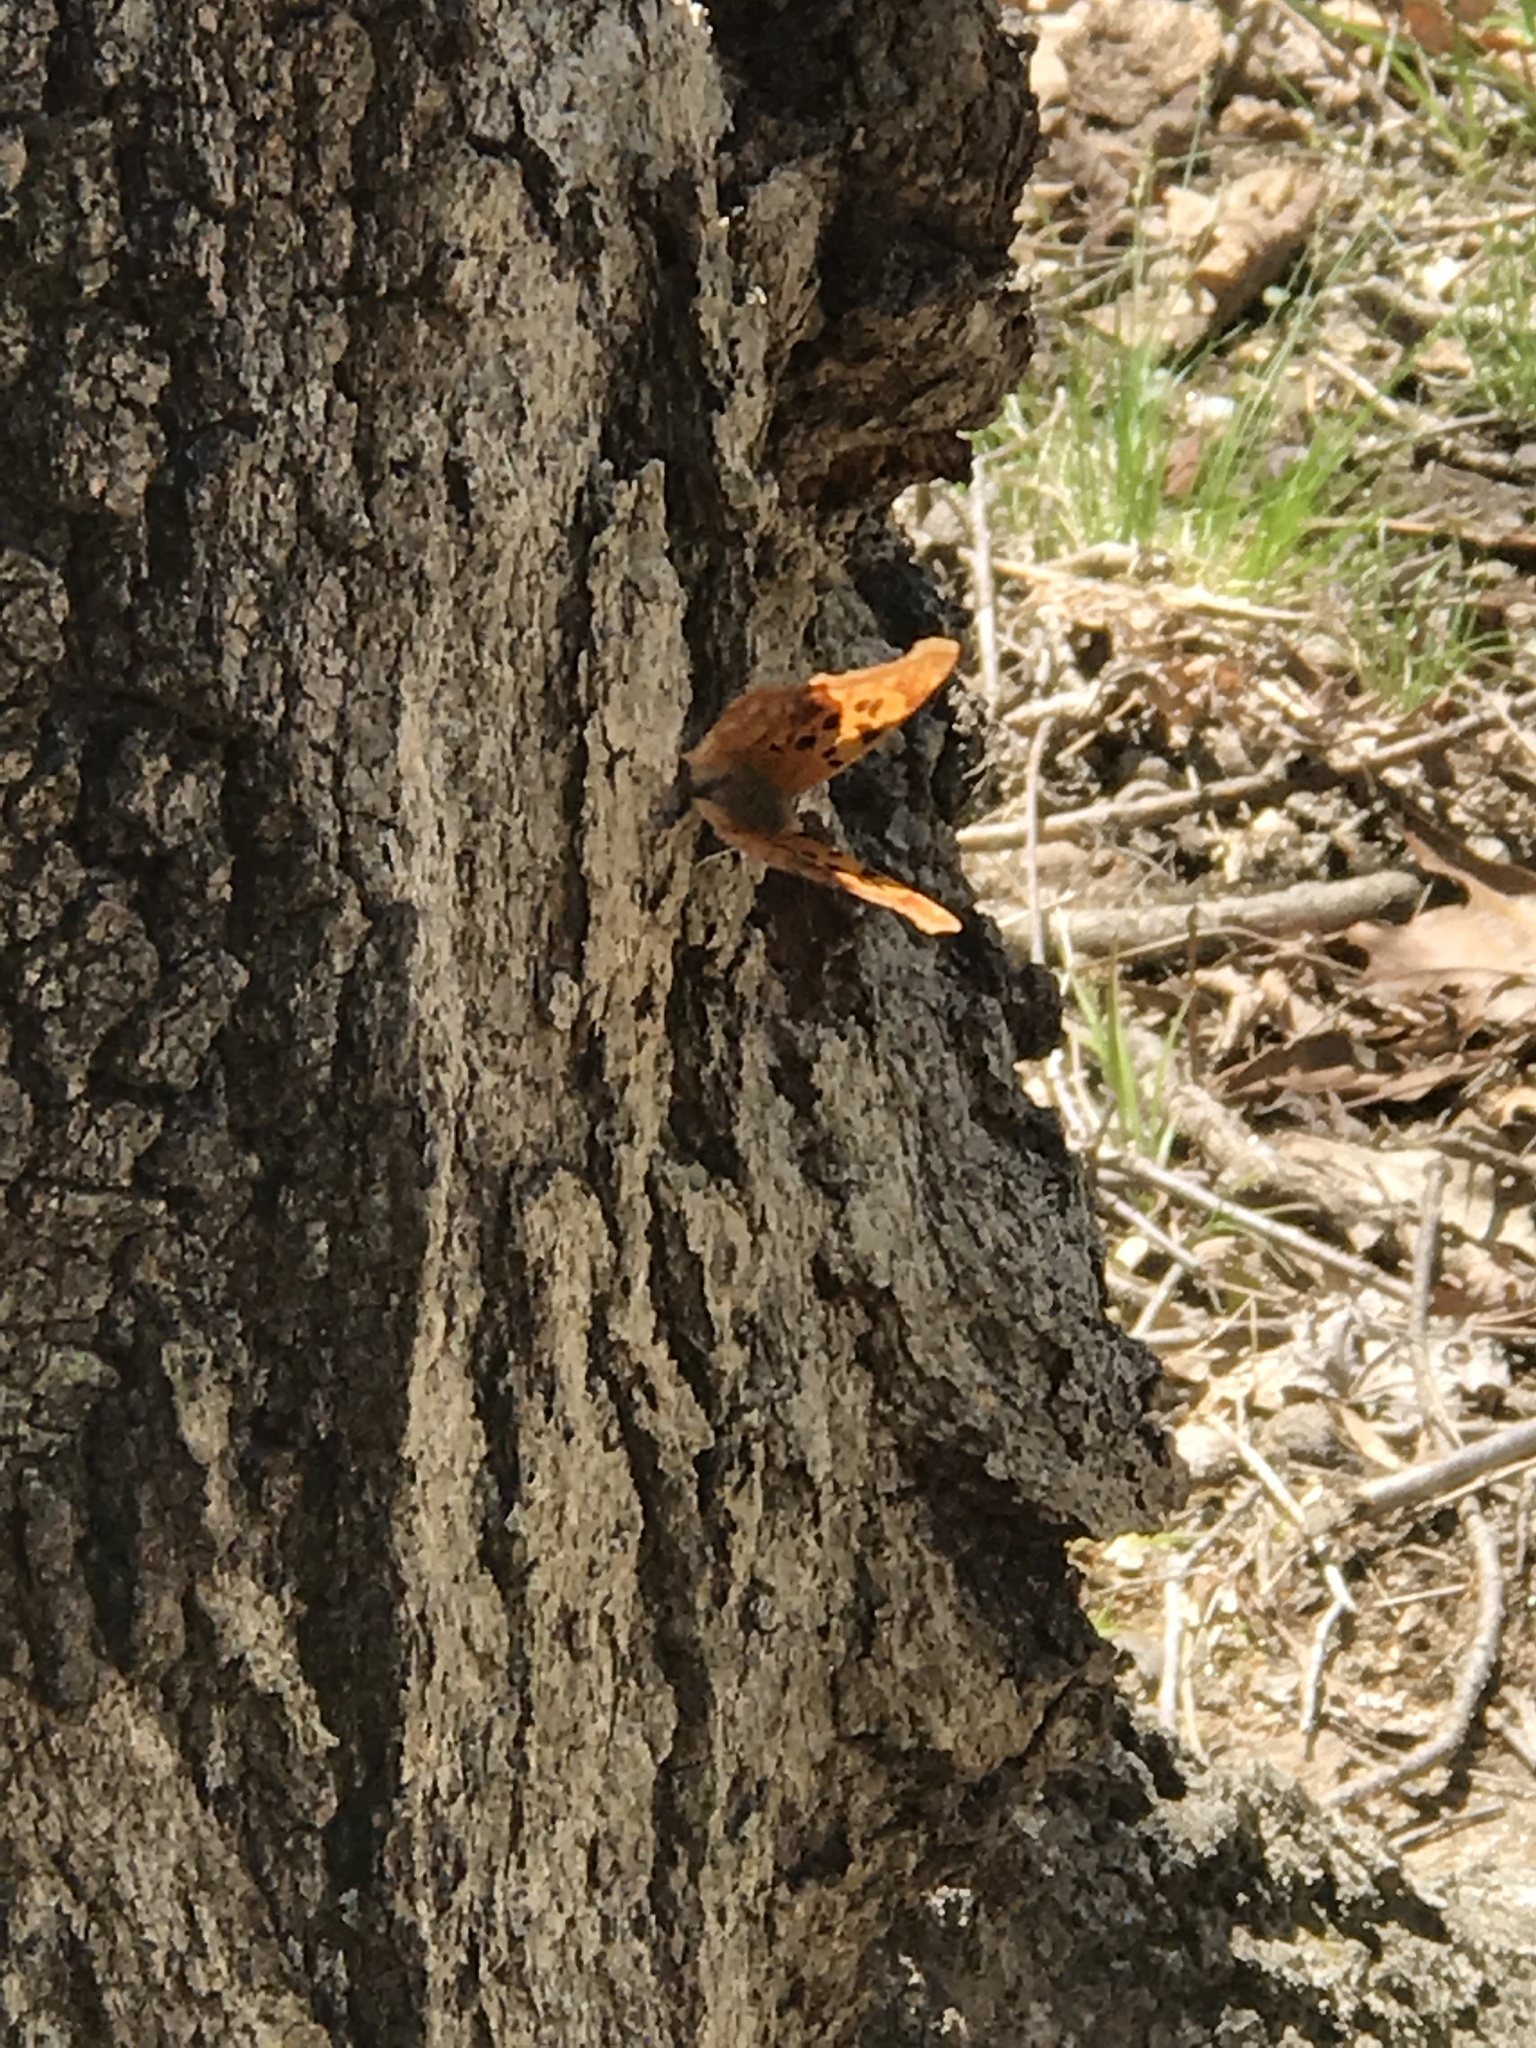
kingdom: Animalia
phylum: Arthropoda
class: Insecta
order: Lepidoptera
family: Nymphalidae
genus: Polygonia
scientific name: Polygonia interrogationis
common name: Question mark
